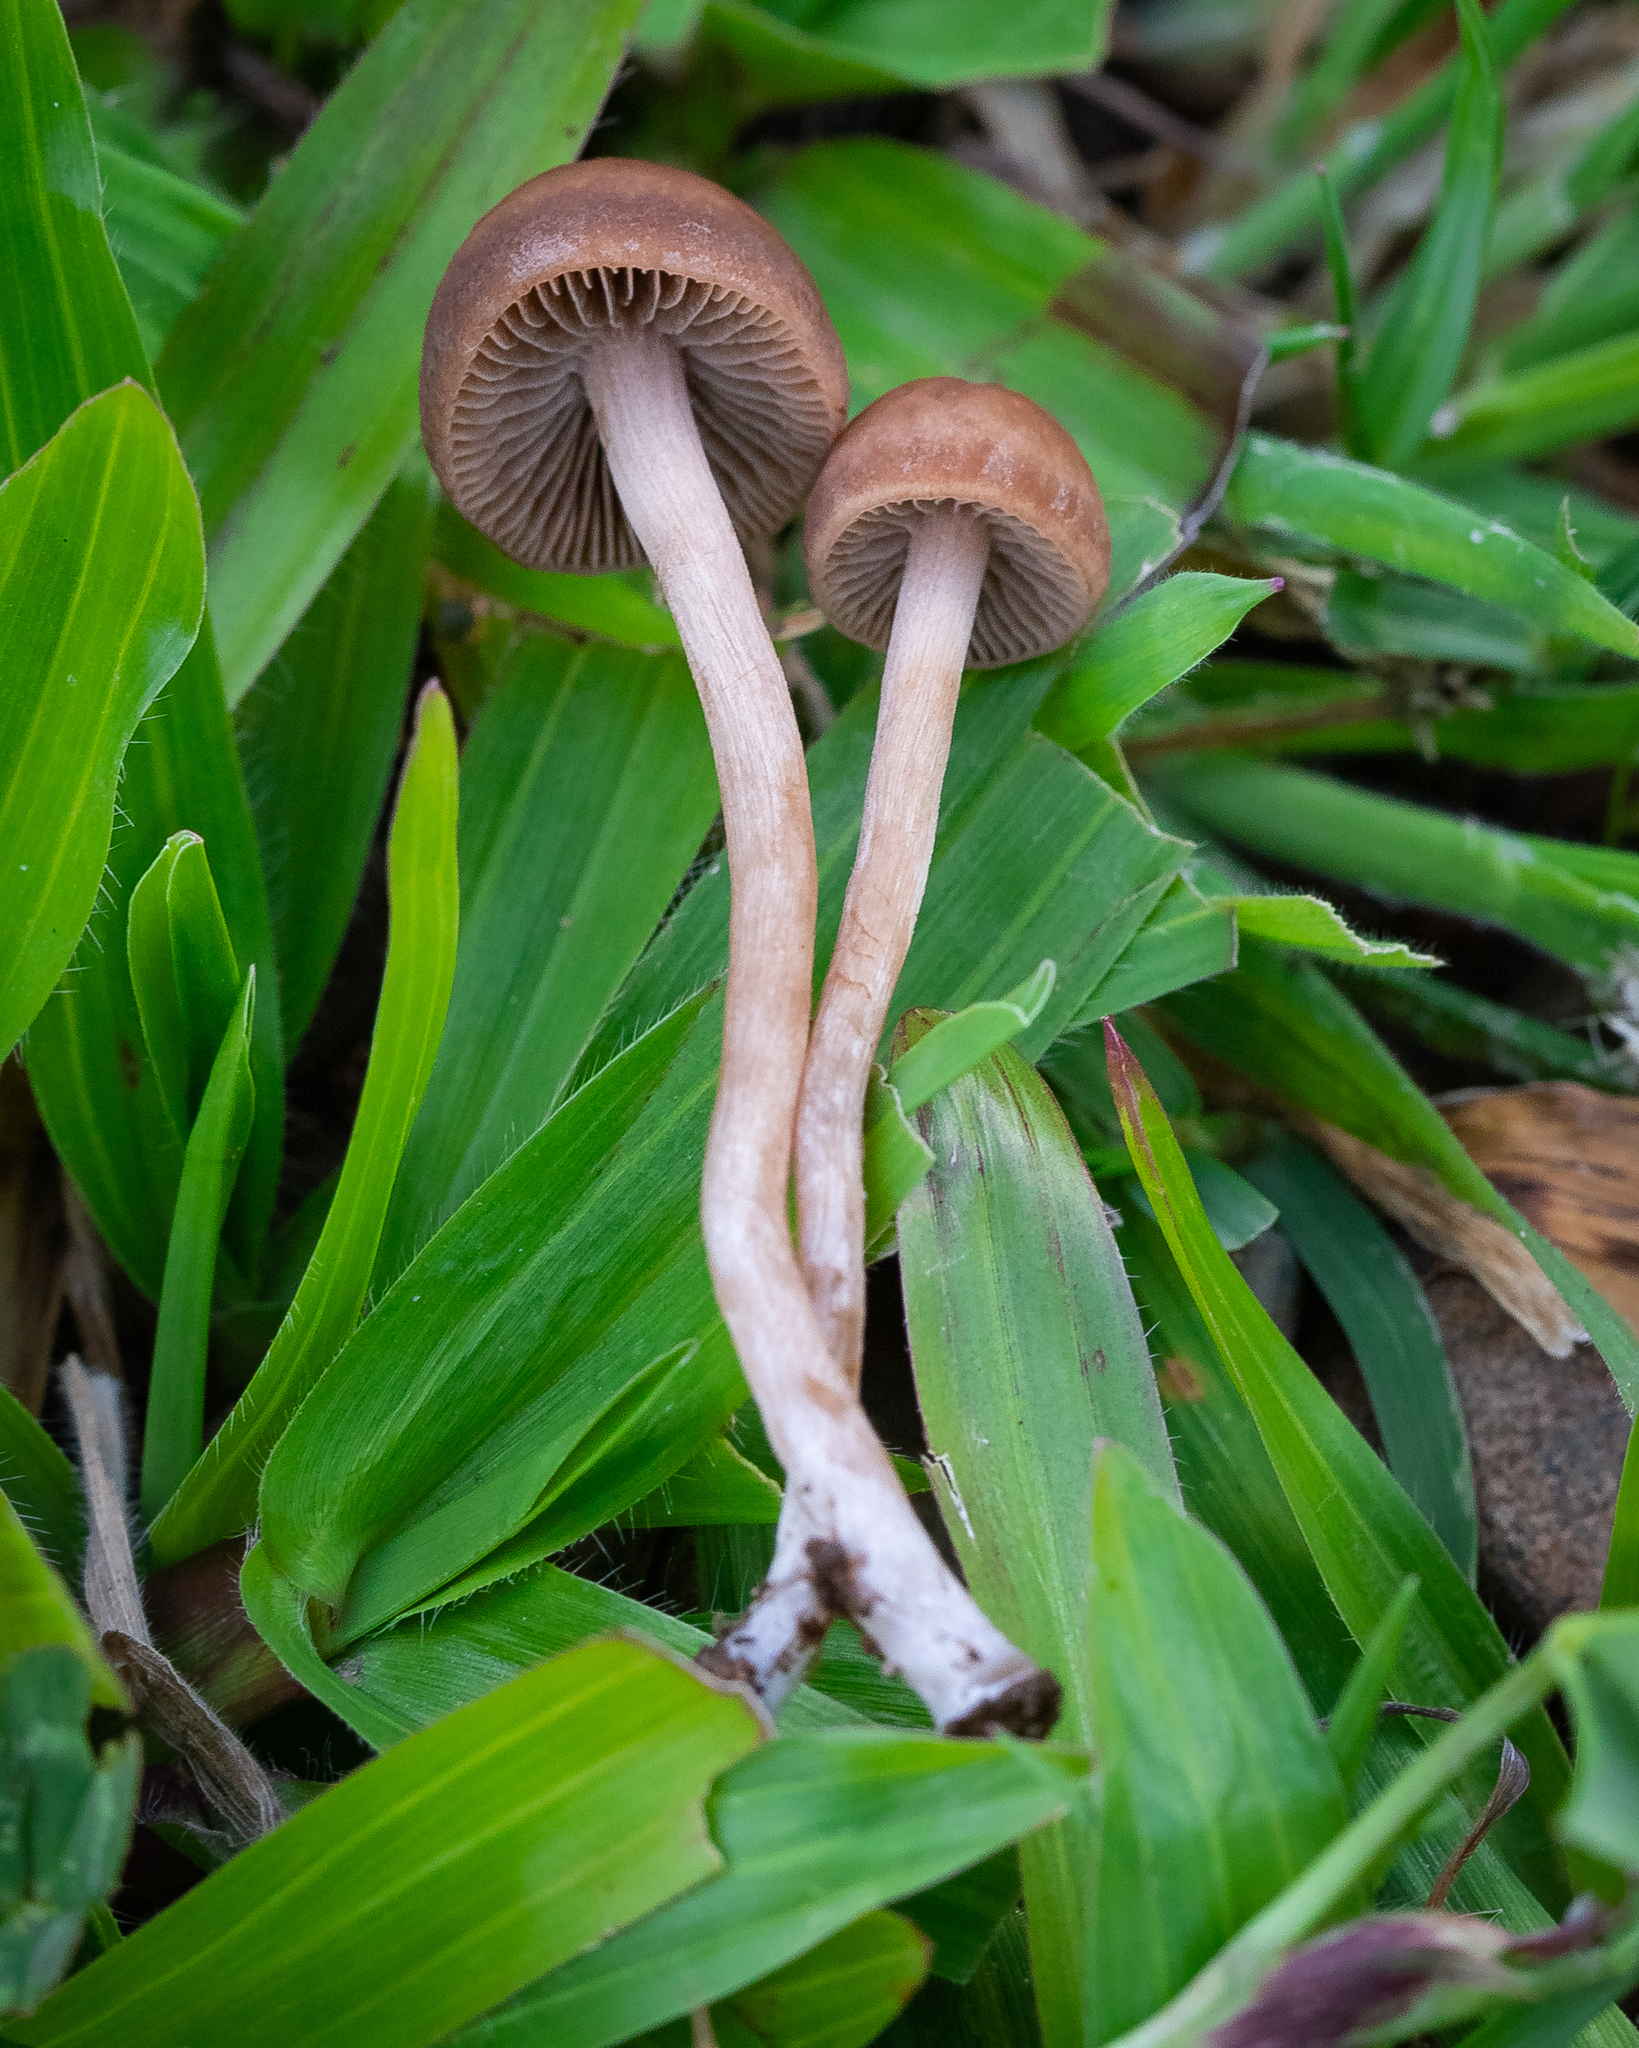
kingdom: Fungi
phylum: Basidiomycota
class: Agaricomycetes
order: Agaricales
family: Bolbitiaceae
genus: Panaeolina
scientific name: Panaeolina foenisecii
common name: Brown hay cap
